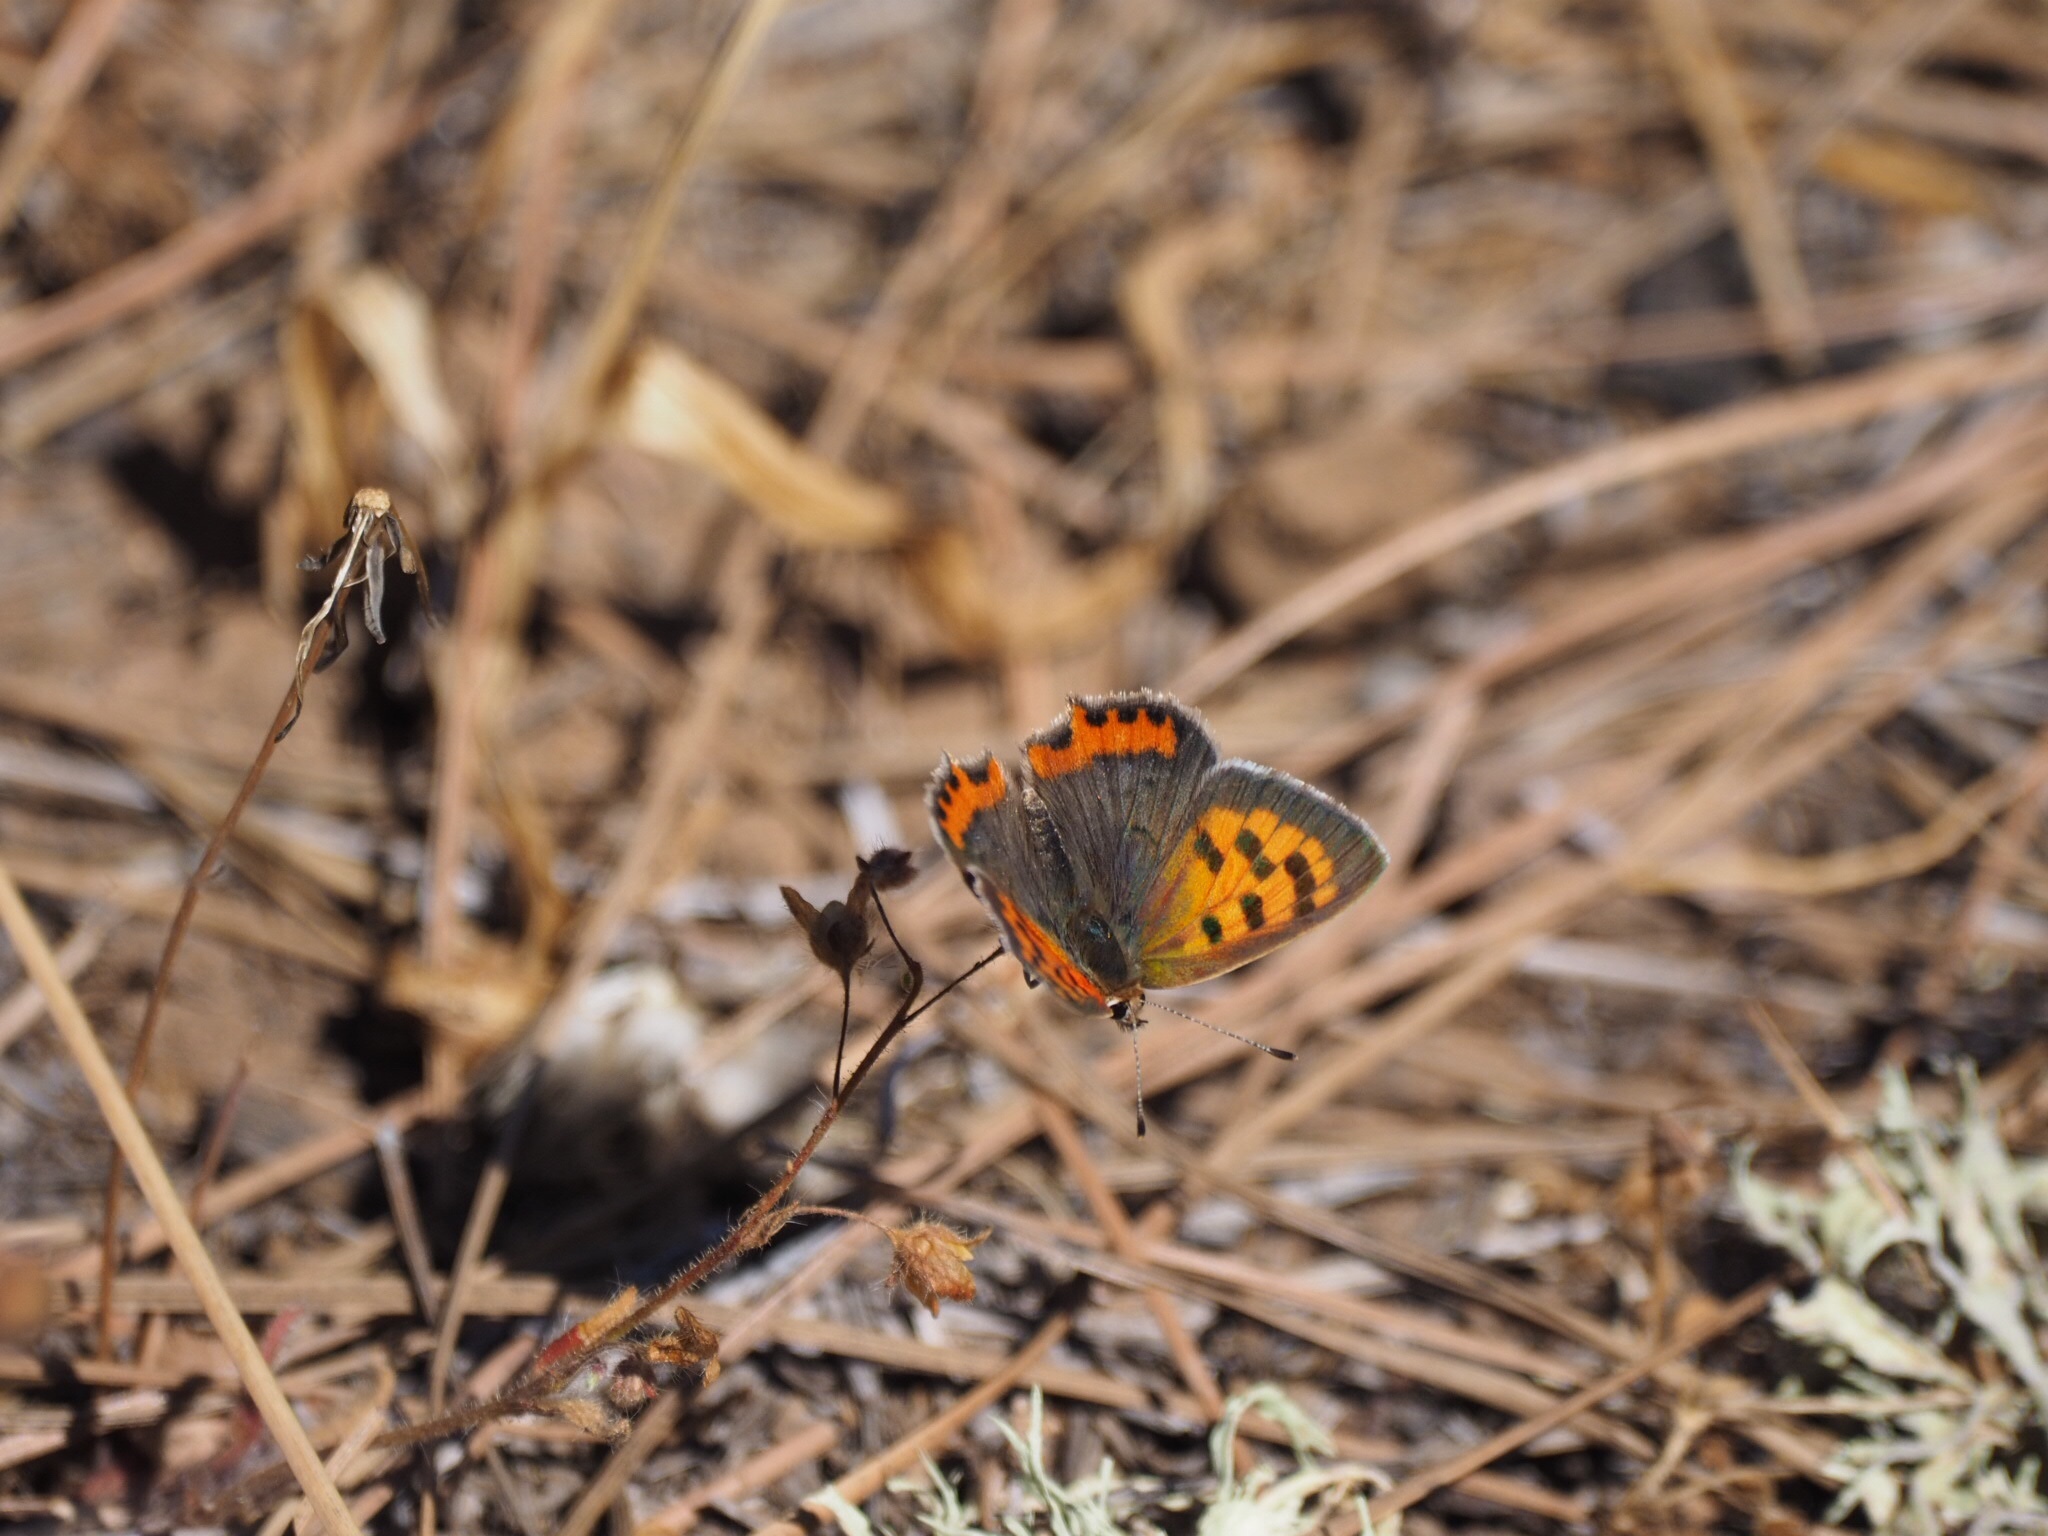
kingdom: Animalia
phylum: Arthropoda
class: Insecta
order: Lepidoptera
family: Lycaenidae
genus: Lycaena
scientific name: Lycaena phlaeas
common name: Small copper
